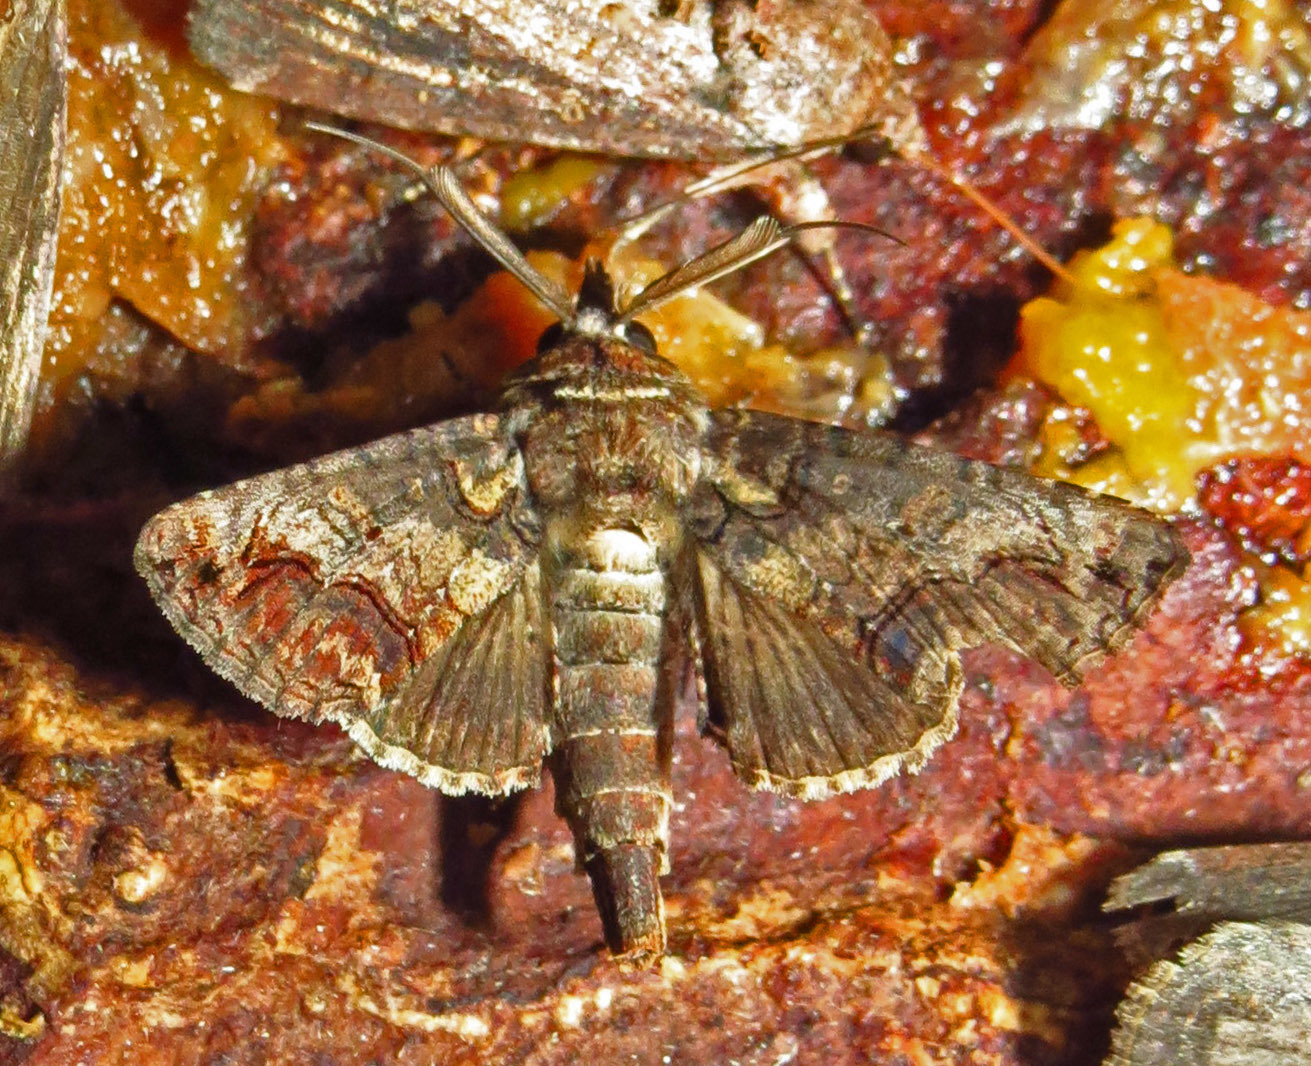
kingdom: Animalia
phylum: Arthropoda
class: Insecta
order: Lepidoptera
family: Euteliidae
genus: Paectes
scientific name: Paectes abrostoloides
